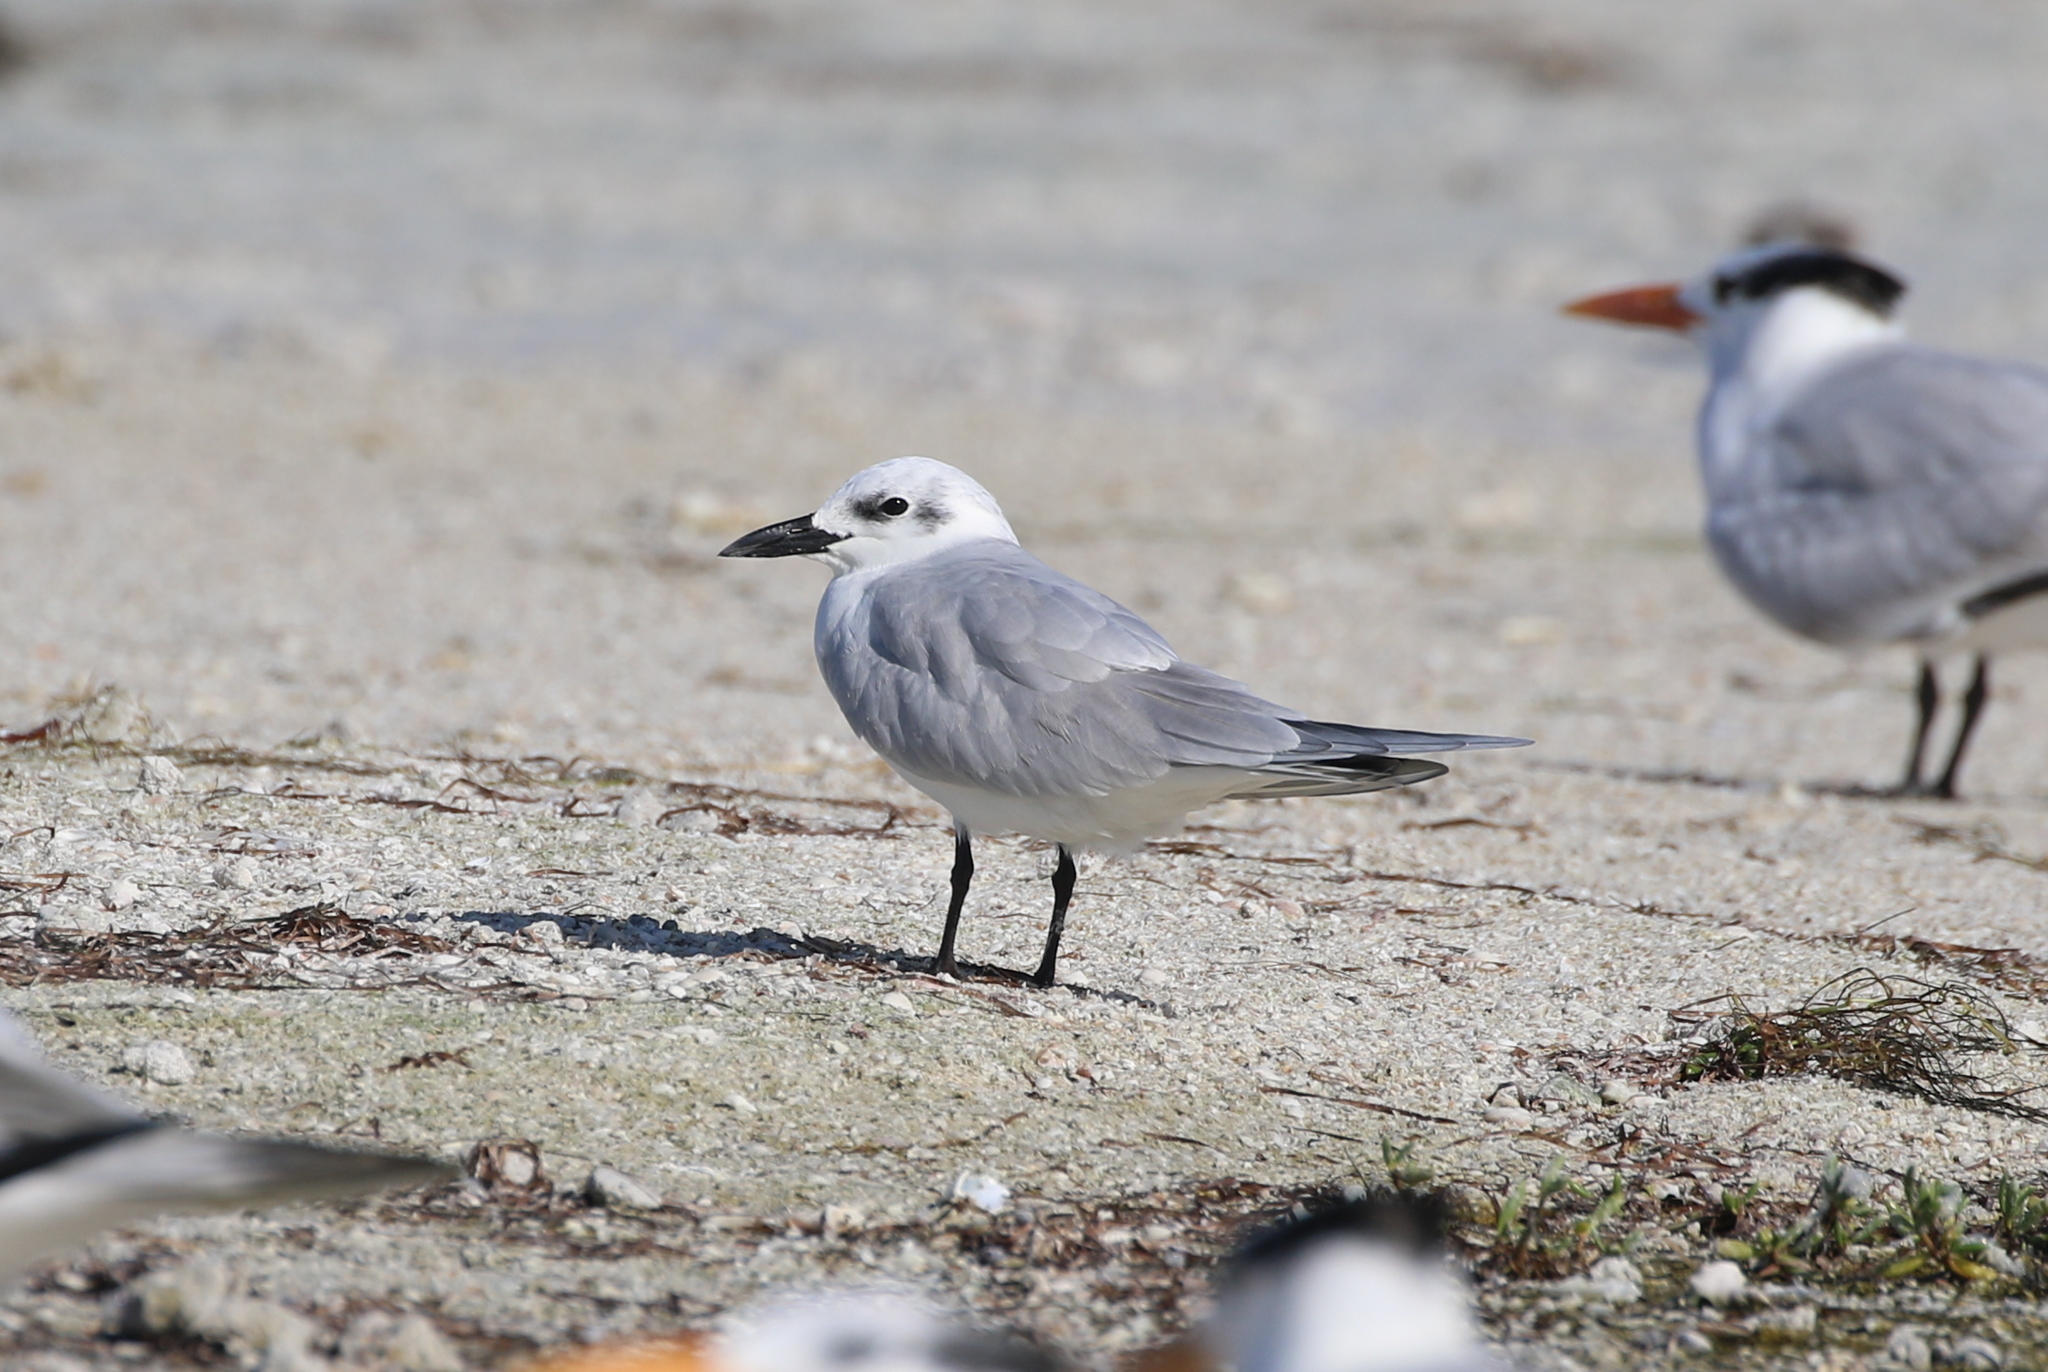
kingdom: Animalia
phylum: Chordata
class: Aves
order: Charadriiformes
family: Laridae
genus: Gelochelidon
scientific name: Gelochelidon nilotica
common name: Gull-billed tern
